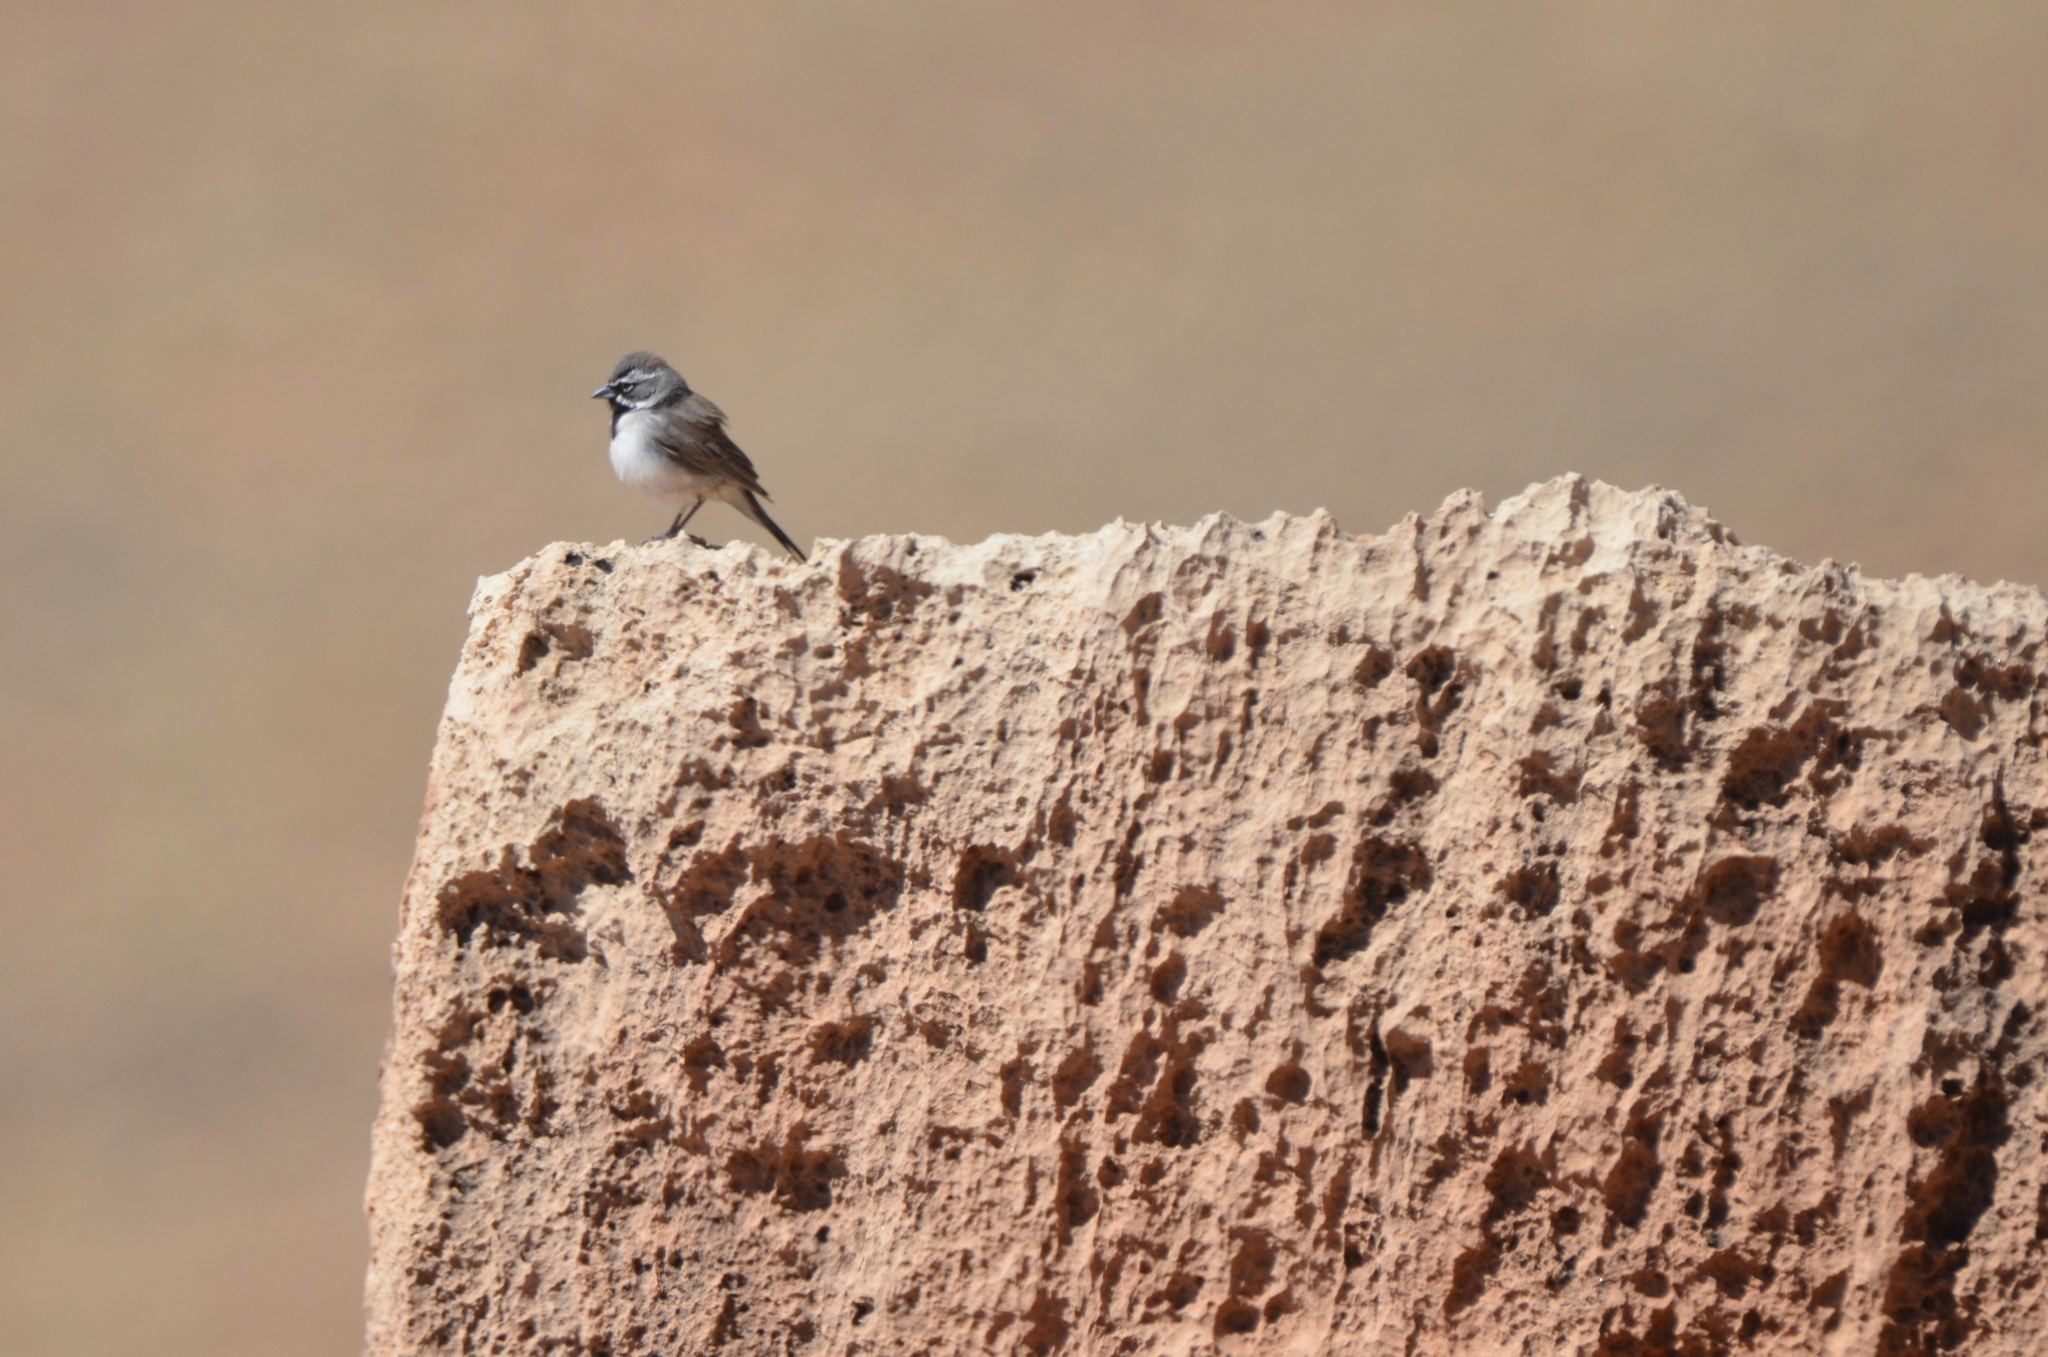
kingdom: Animalia
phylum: Chordata
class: Aves
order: Passeriformes
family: Passerellidae
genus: Amphispiza
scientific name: Amphispiza bilineata
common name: Black-throated sparrow
